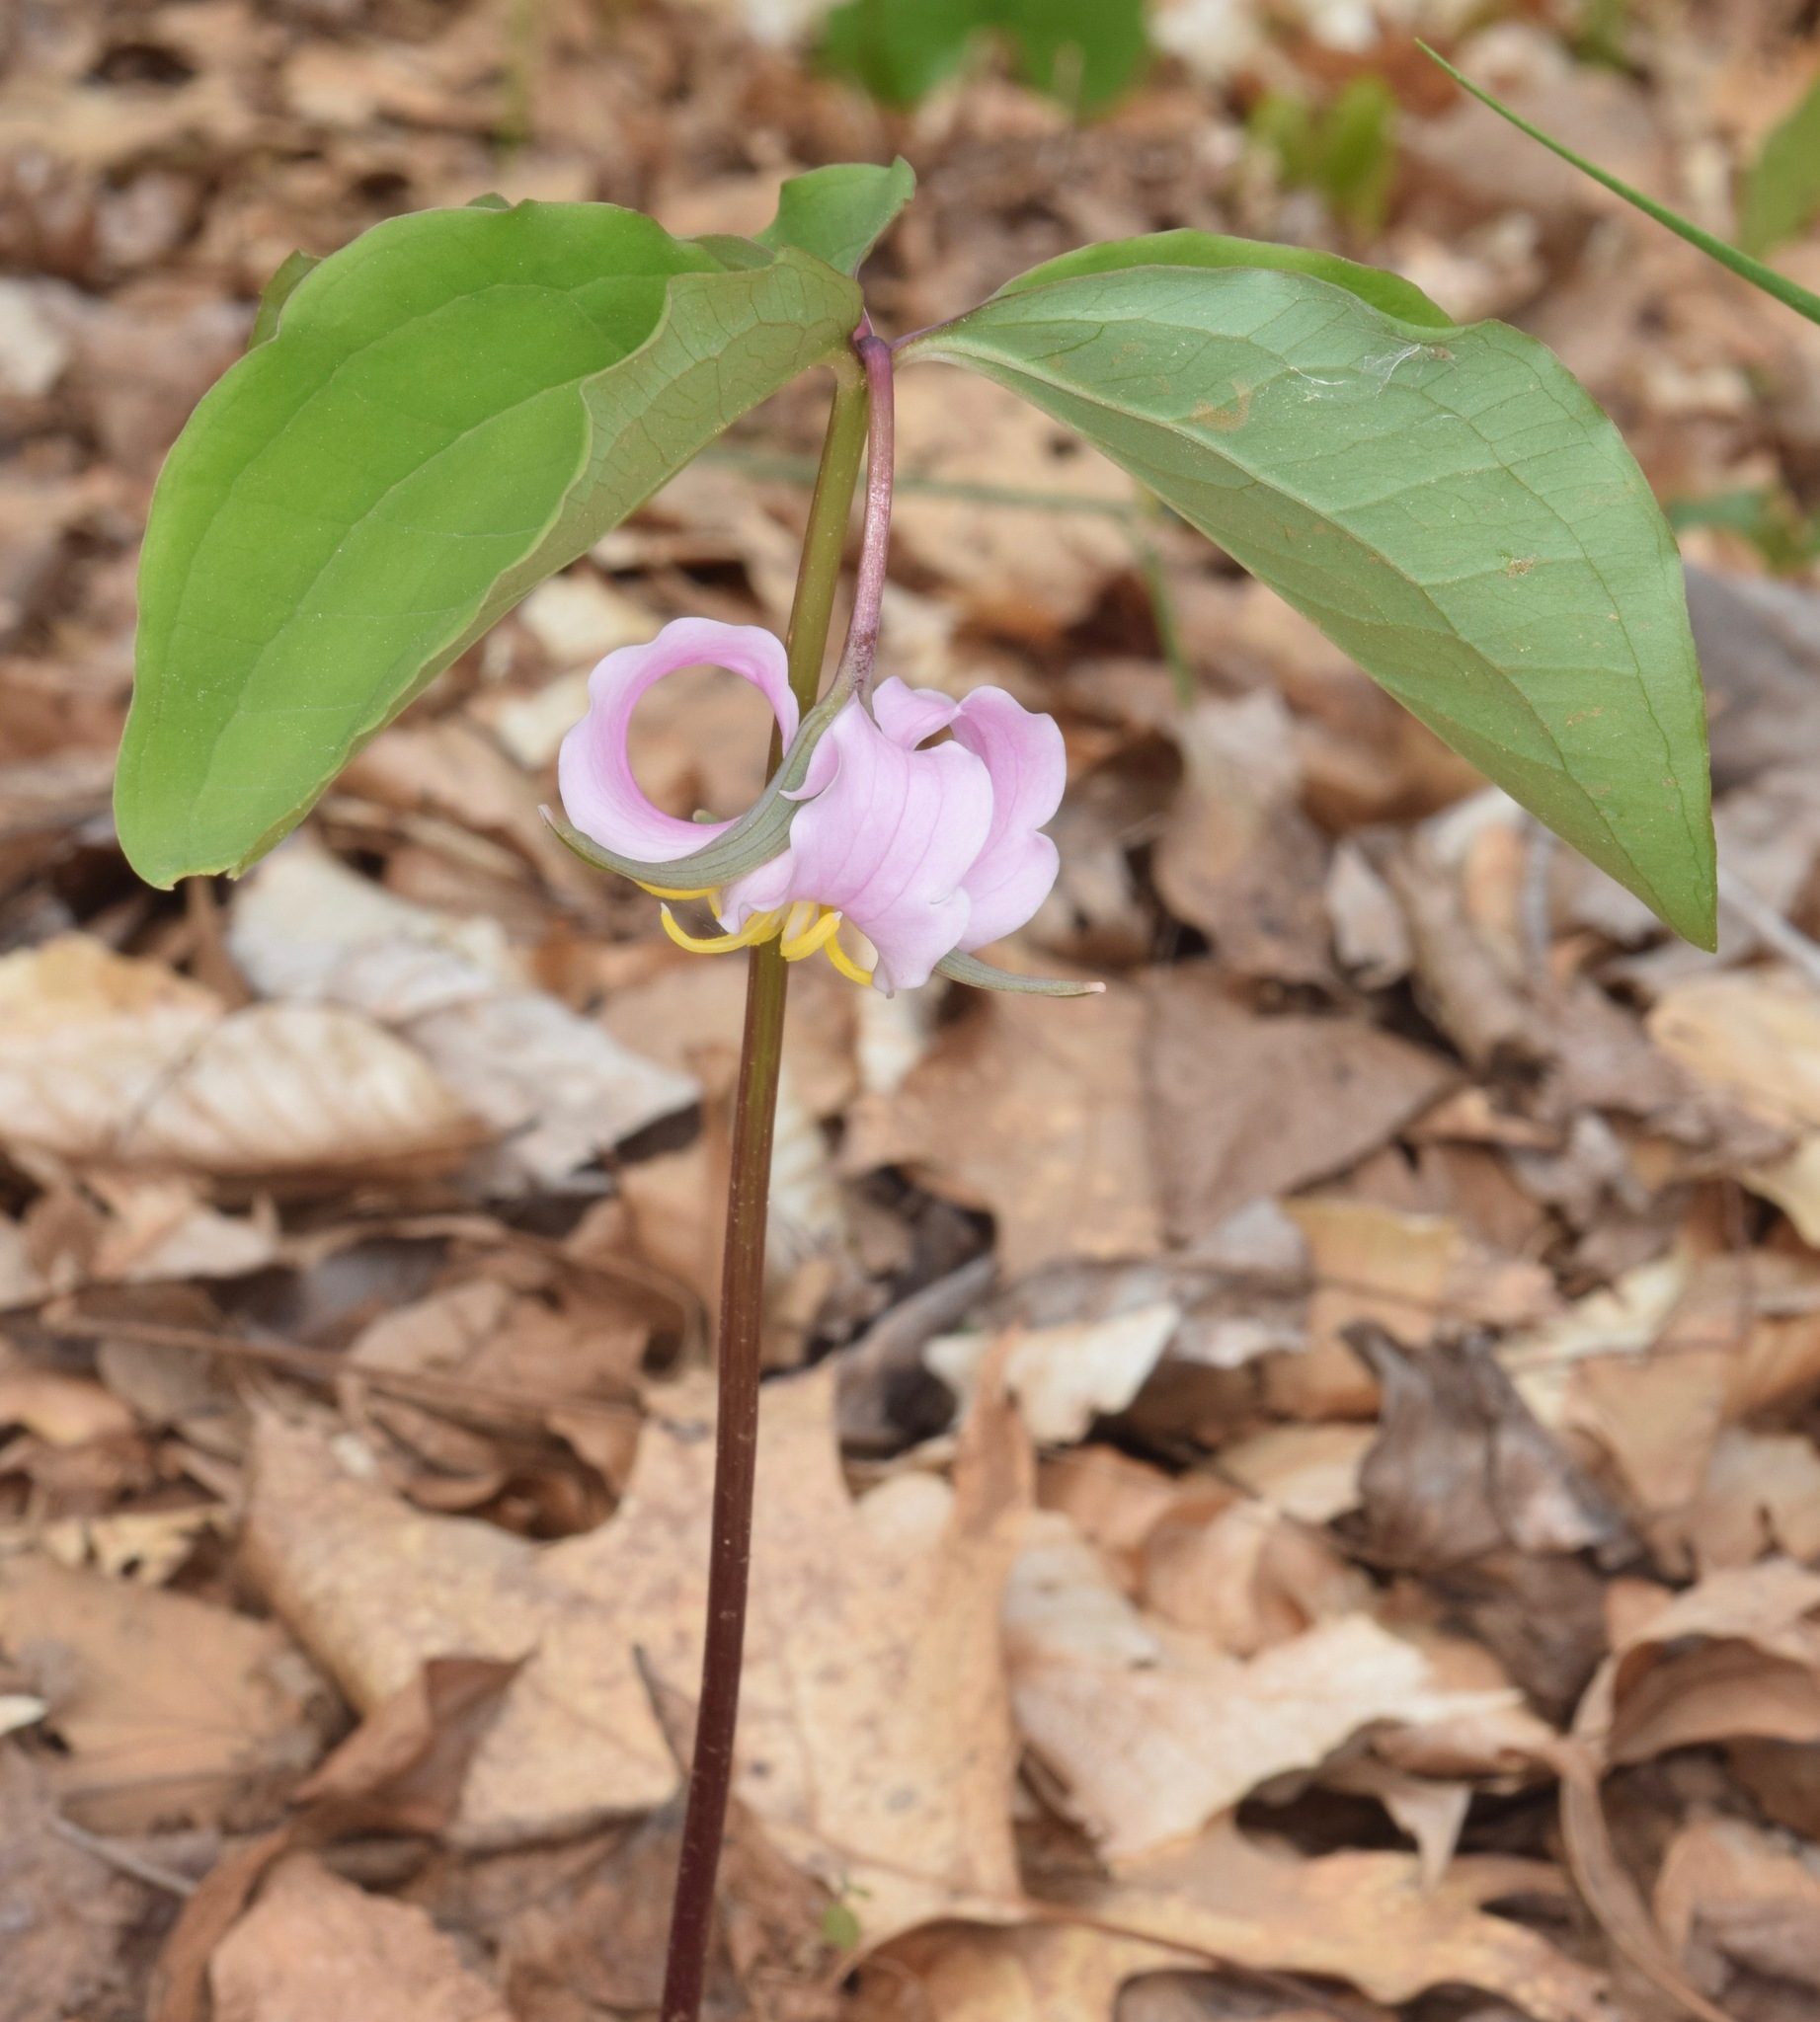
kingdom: Plantae
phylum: Tracheophyta
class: Liliopsida
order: Liliales
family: Melanthiaceae
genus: Trillium
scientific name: Trillium catesbaei
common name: Bashful trillium
